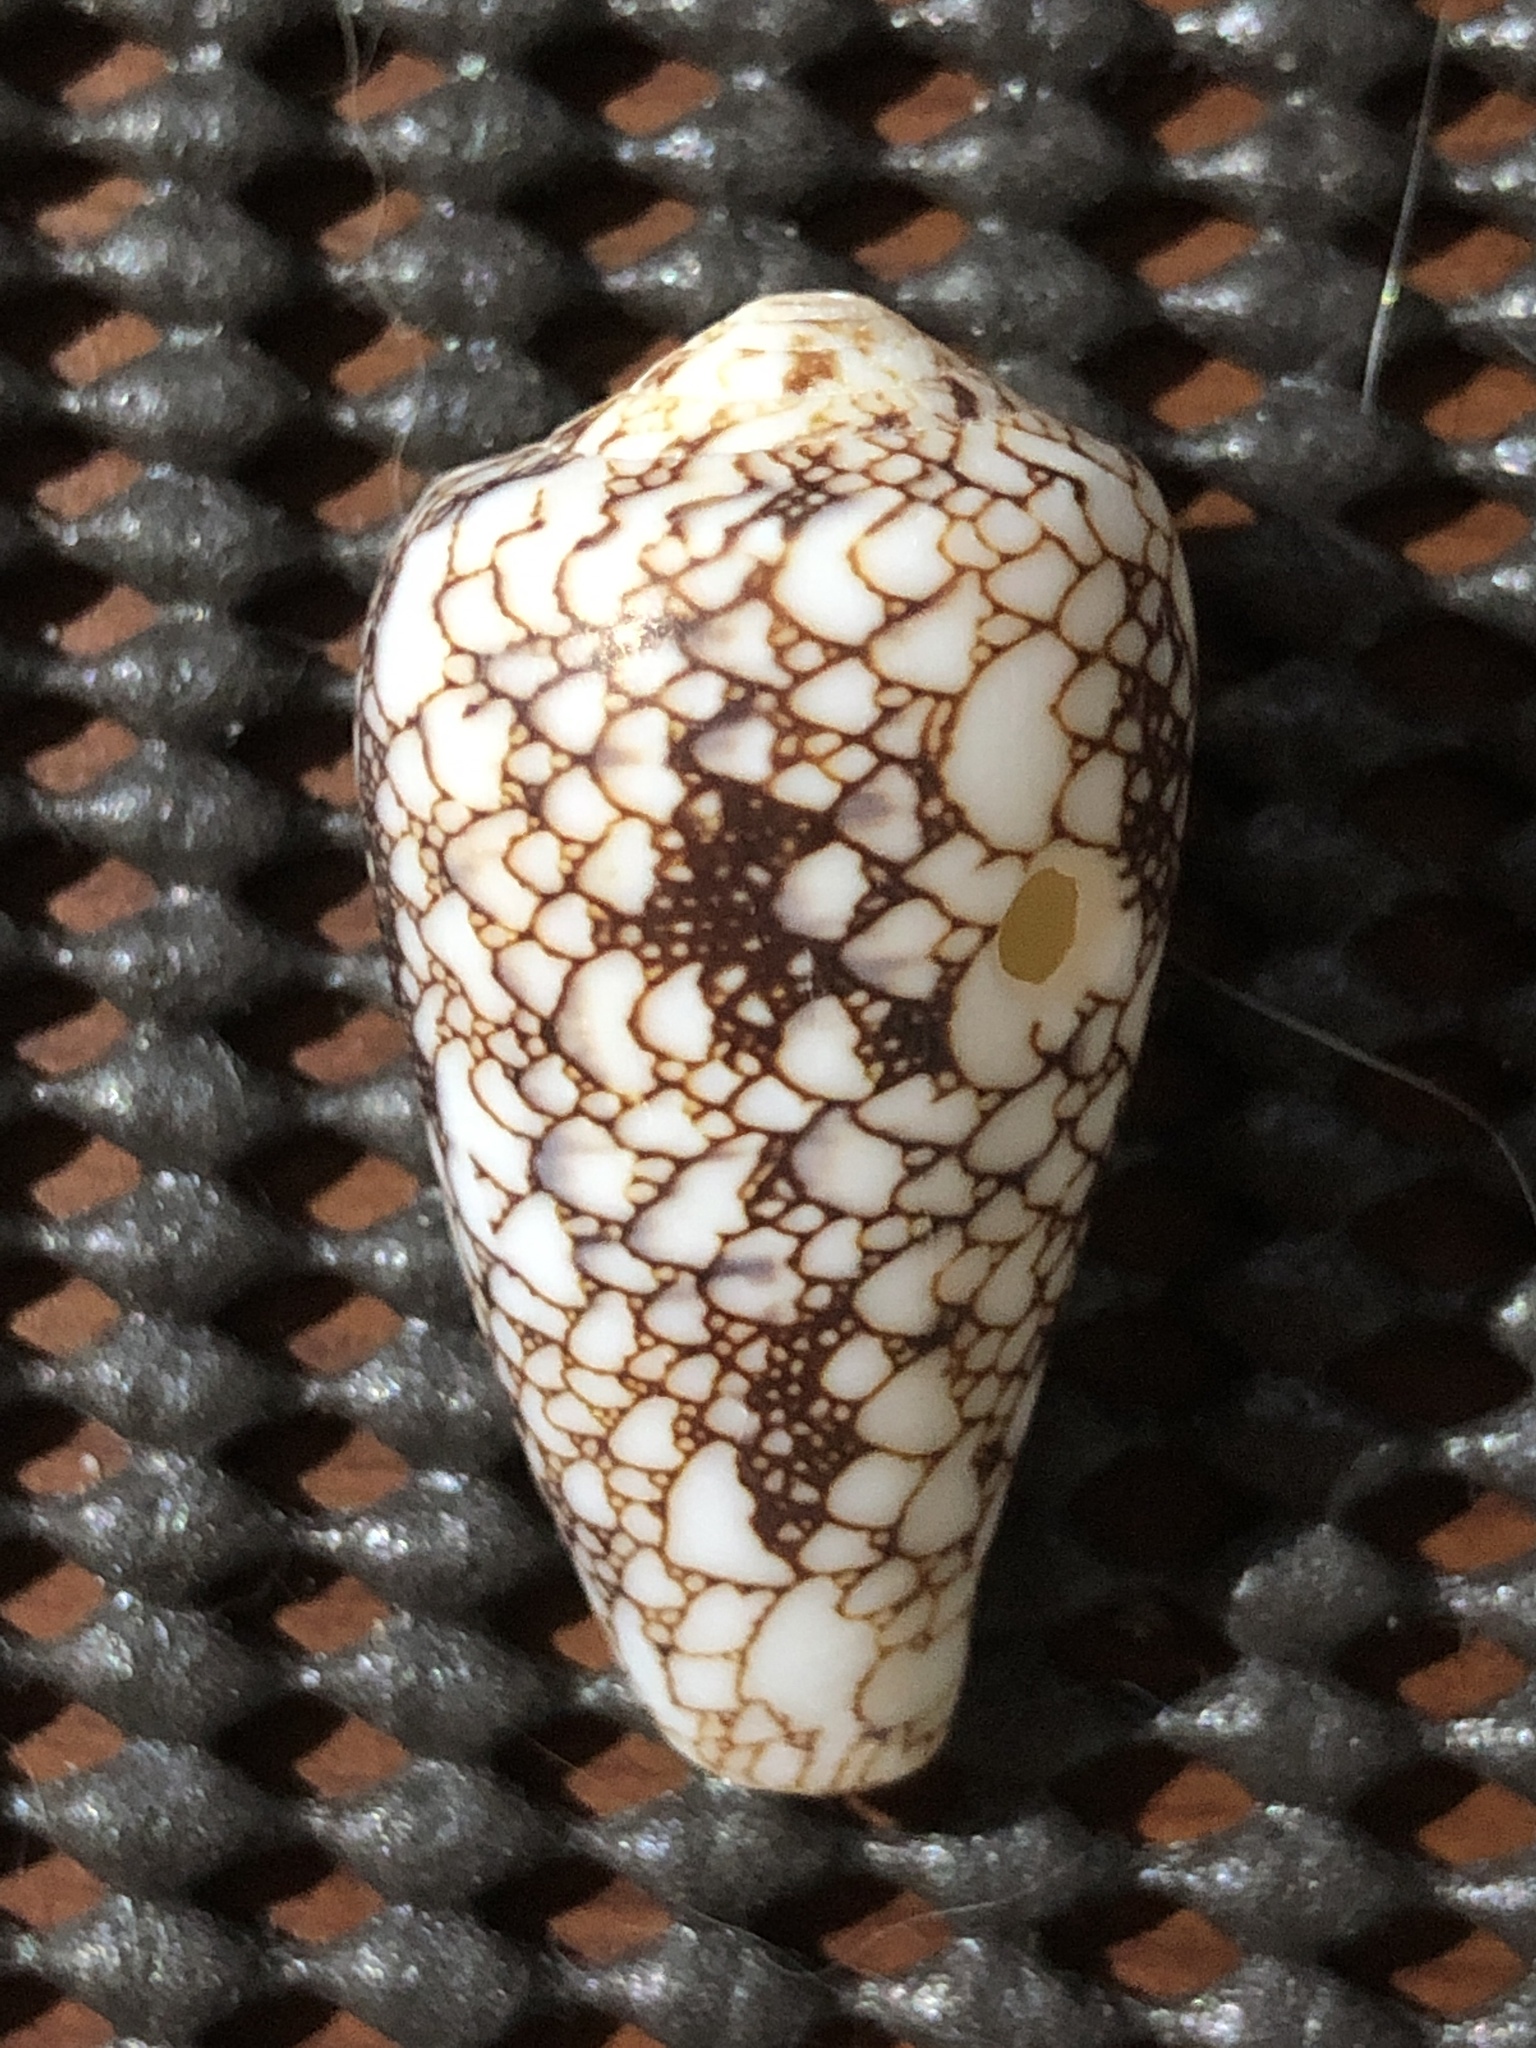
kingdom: Animalia
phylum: Mollusca
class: Gastropoda
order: Neogastropoda
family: Conidae
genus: Conus
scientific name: Conus omaria
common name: Omaria cone
